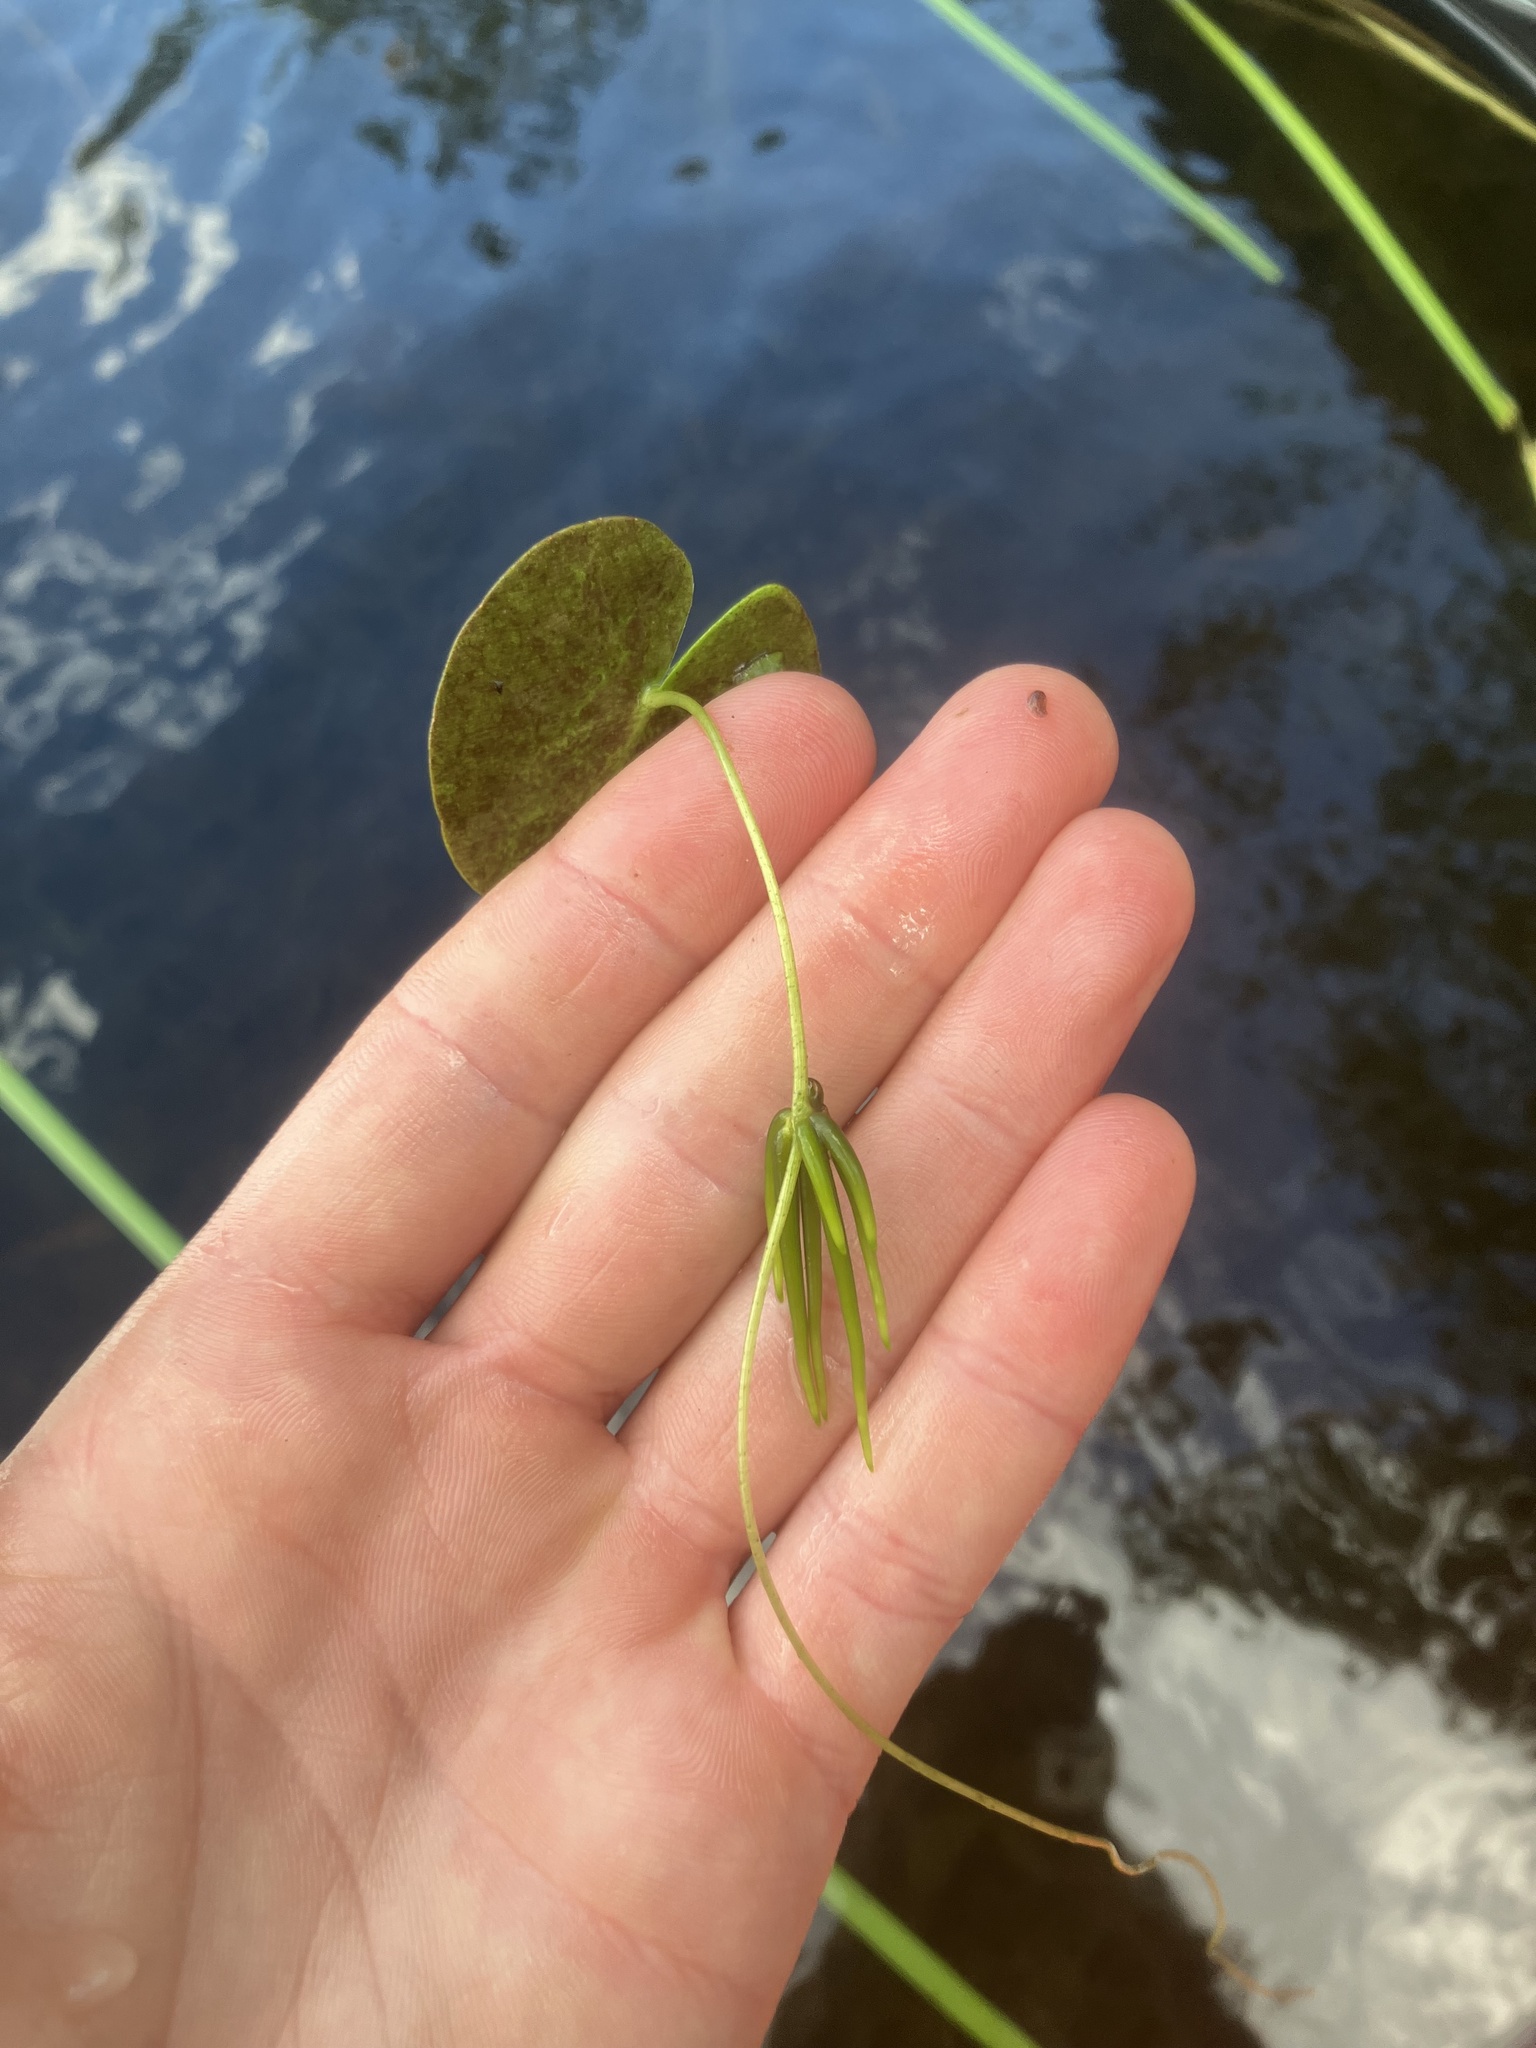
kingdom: Plantae
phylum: Tracheophyta
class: Magnoliopsida
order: Asterales
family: Menyanthaceae
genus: Nymphoides
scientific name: Nymphoides cordata
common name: Eight-angled floatingheart
